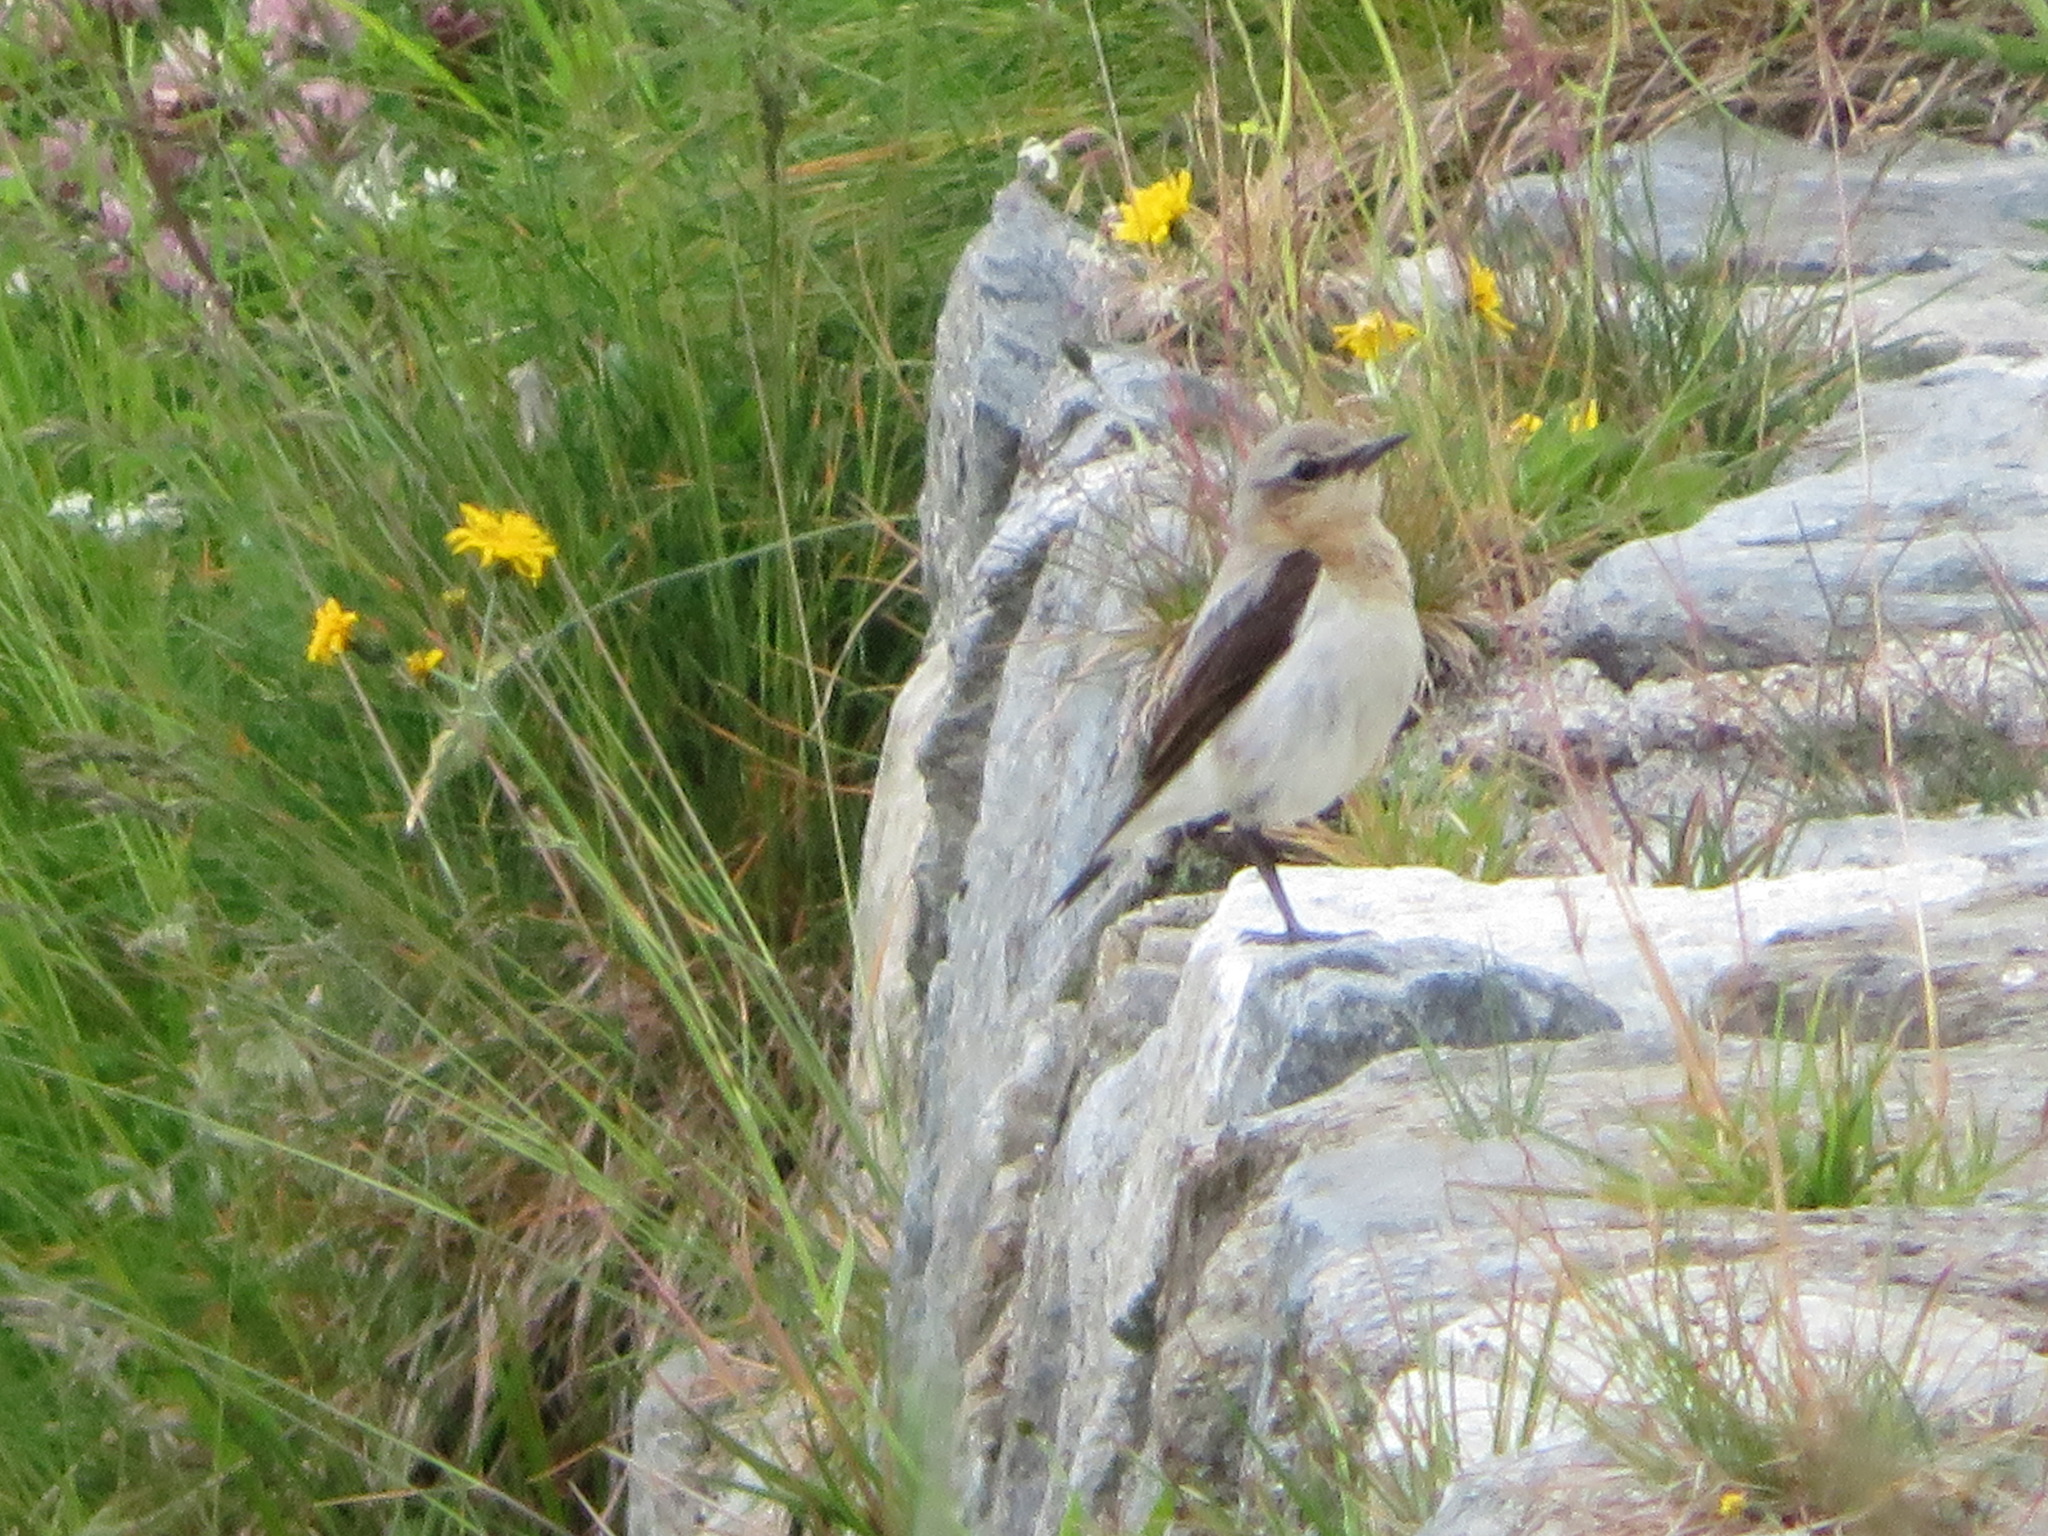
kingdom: Animalia
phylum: Chordata
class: Aves
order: Passeriformes
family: Muscicapidae
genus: Oenanthe
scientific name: Oenanthe oenanthe
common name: Northern wheatear
